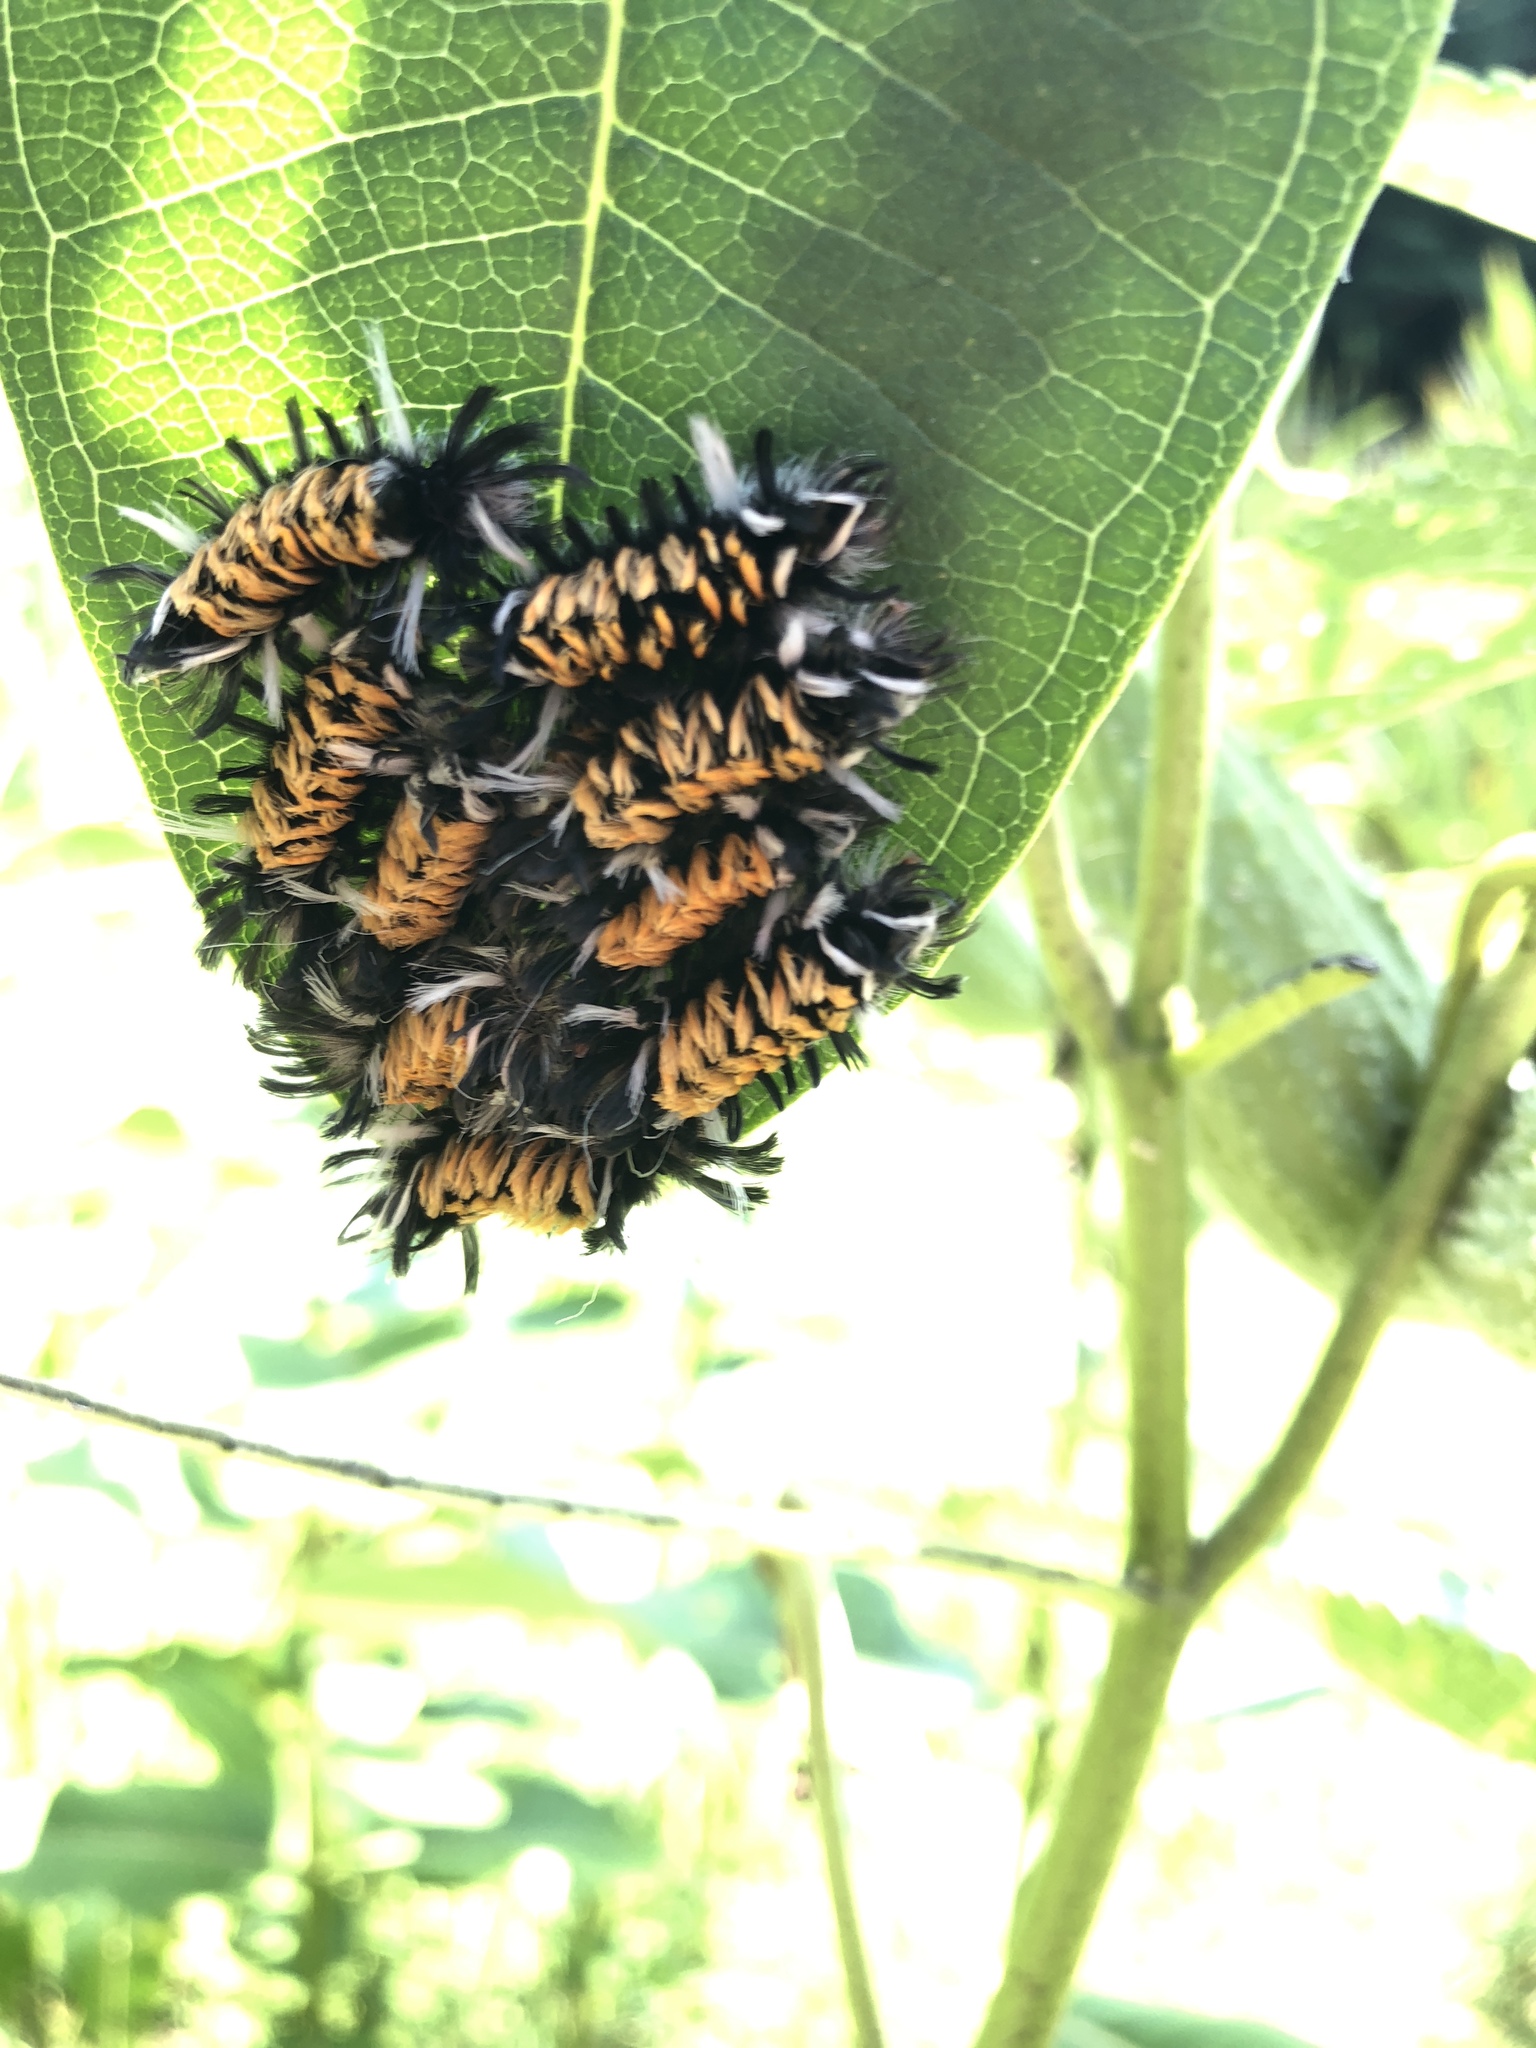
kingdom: Animalia
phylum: Arthropoda
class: Insecta
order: Lepidoptera
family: Erebidae
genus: Euchaetes
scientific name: Euchaetes egle
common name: Milkweed tussock moth
